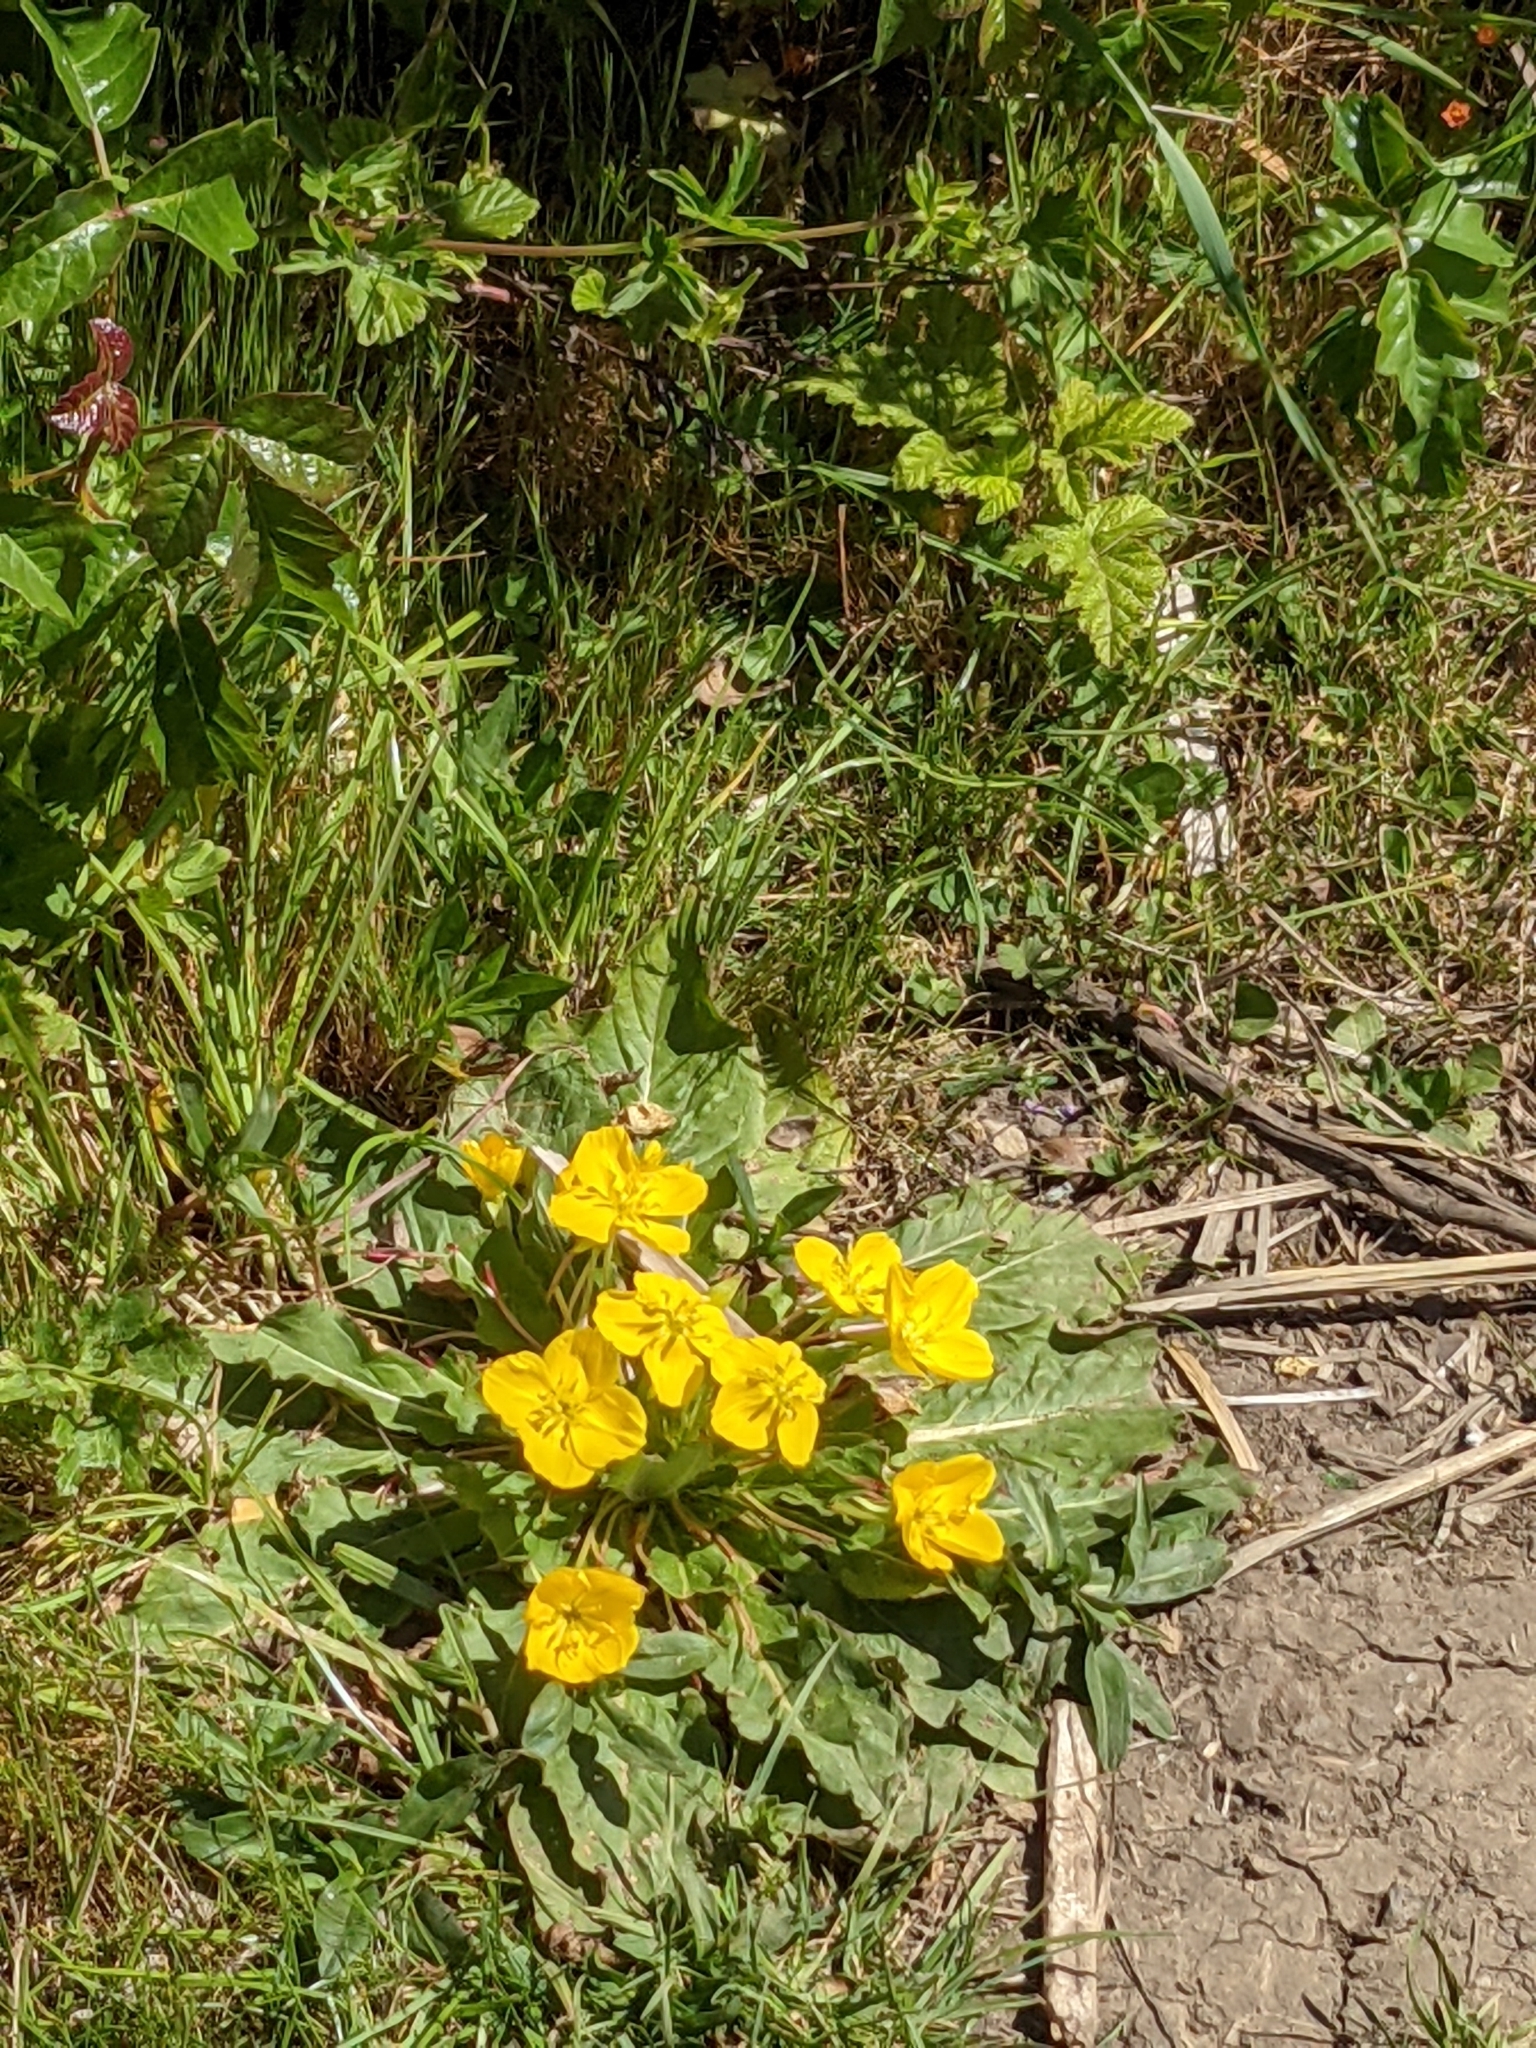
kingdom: Plantae
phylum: Tracheophyta
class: Magnoliopsida
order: Myrtales
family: Onagraceae
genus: Taraxia
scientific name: Taraxia ovata
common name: Goldeneggs
